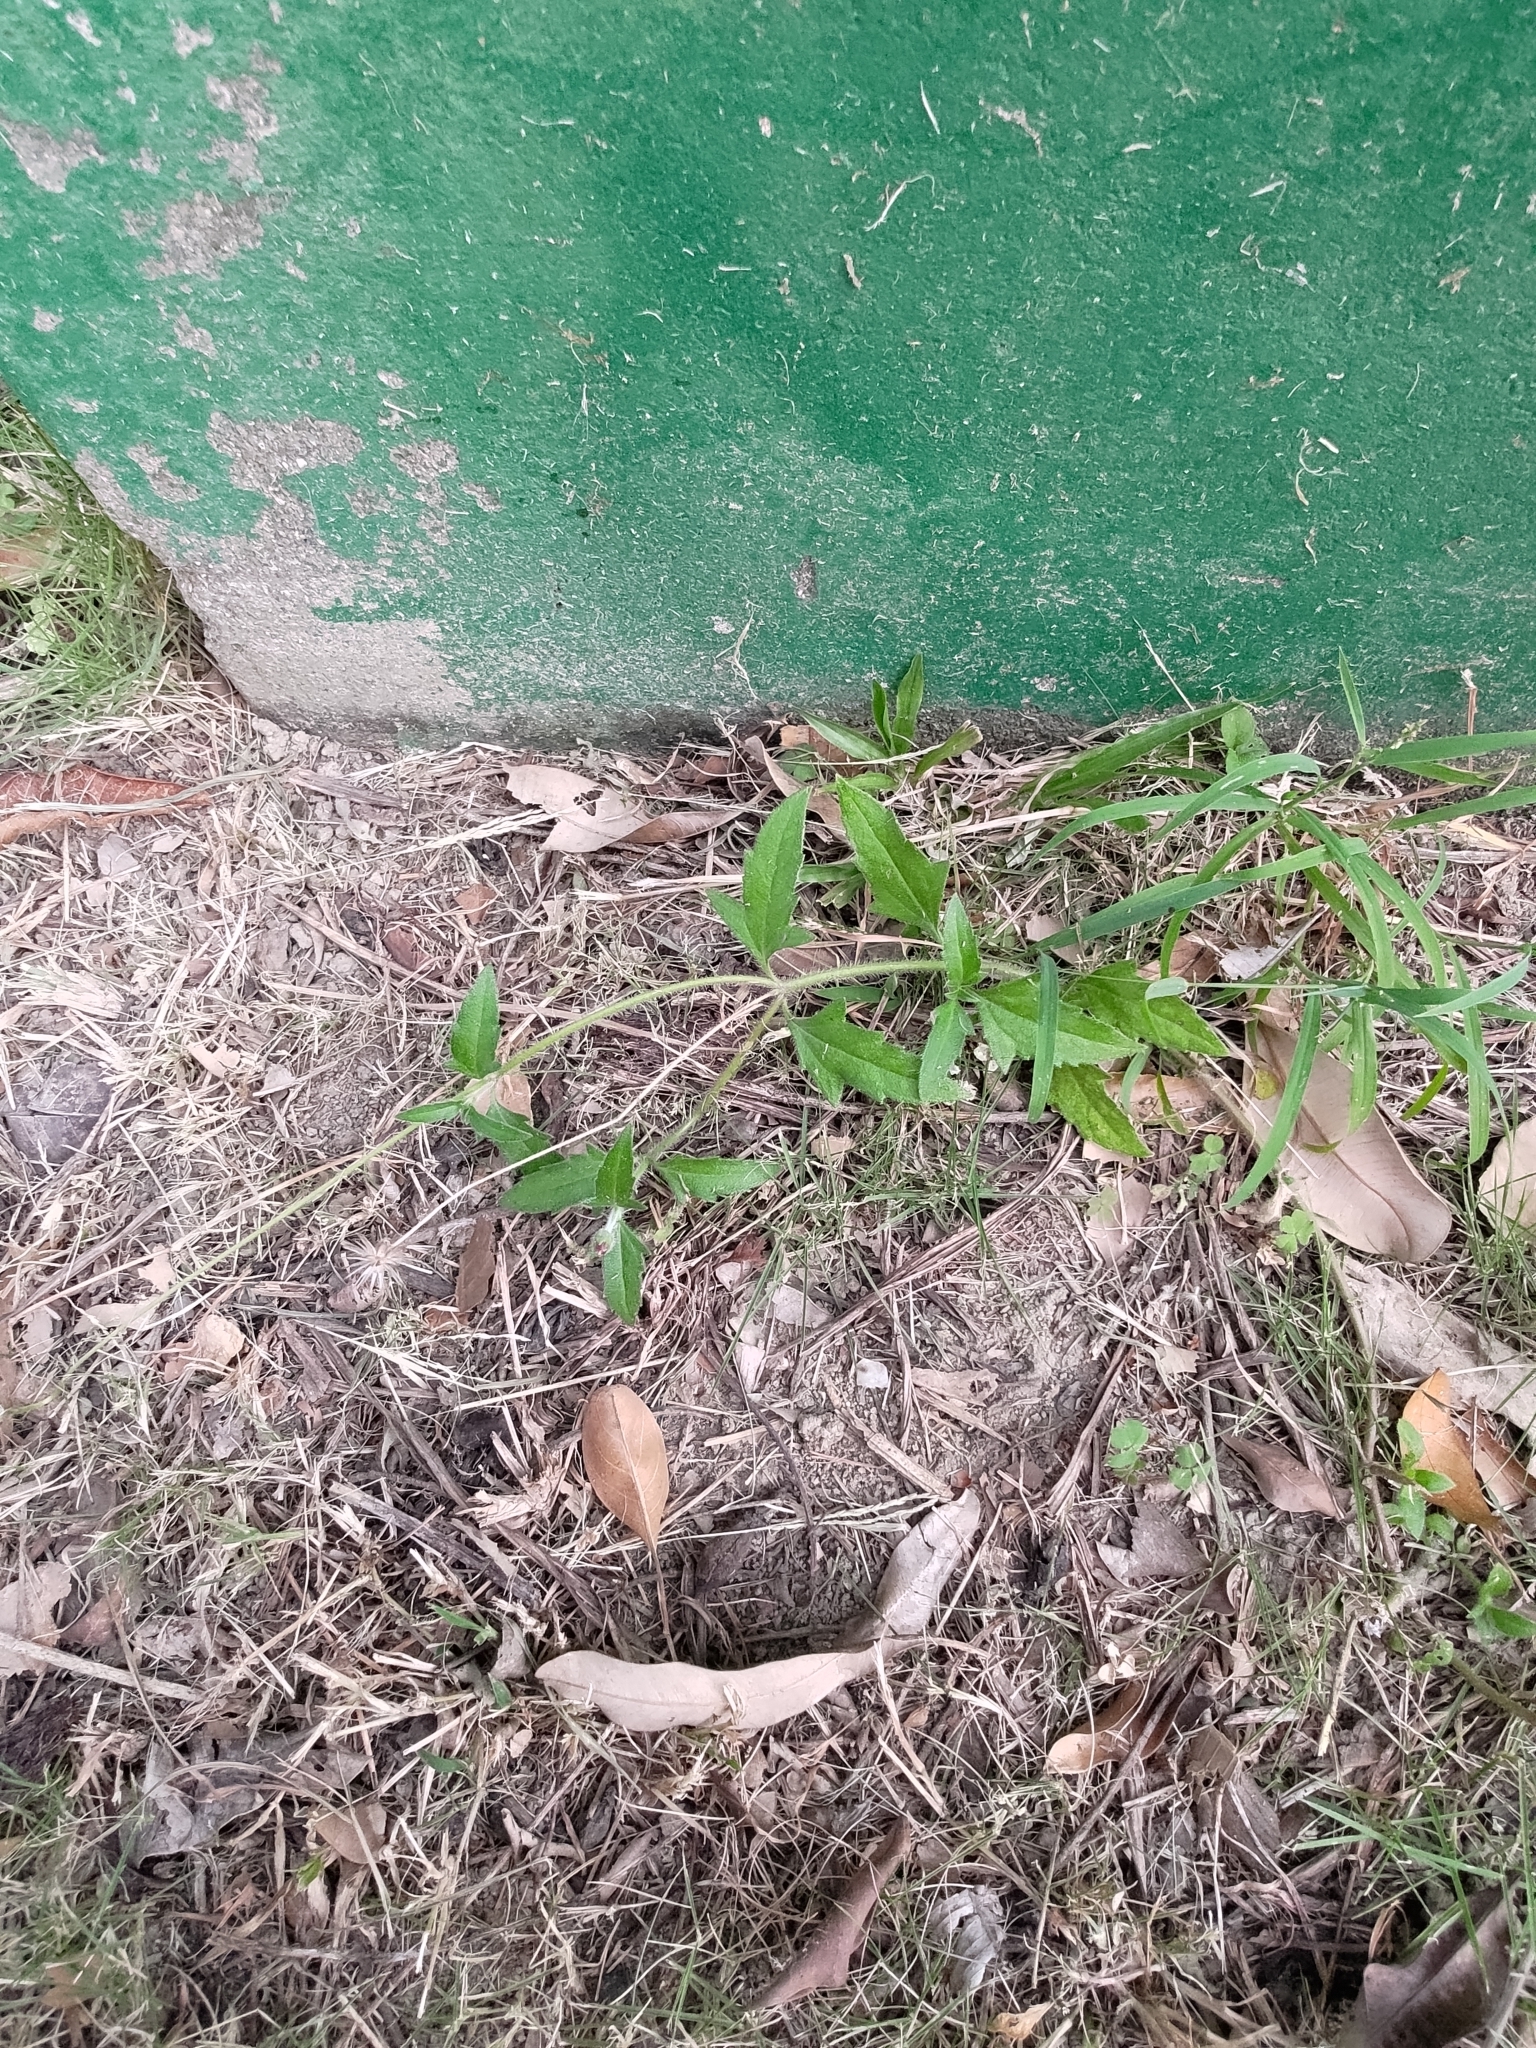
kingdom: Plantae
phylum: Tracheophyta
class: Magnoliopsida
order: Asterales
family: Asteraceae
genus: Tridax
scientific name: Tridax procumbens
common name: Coatbuttons
